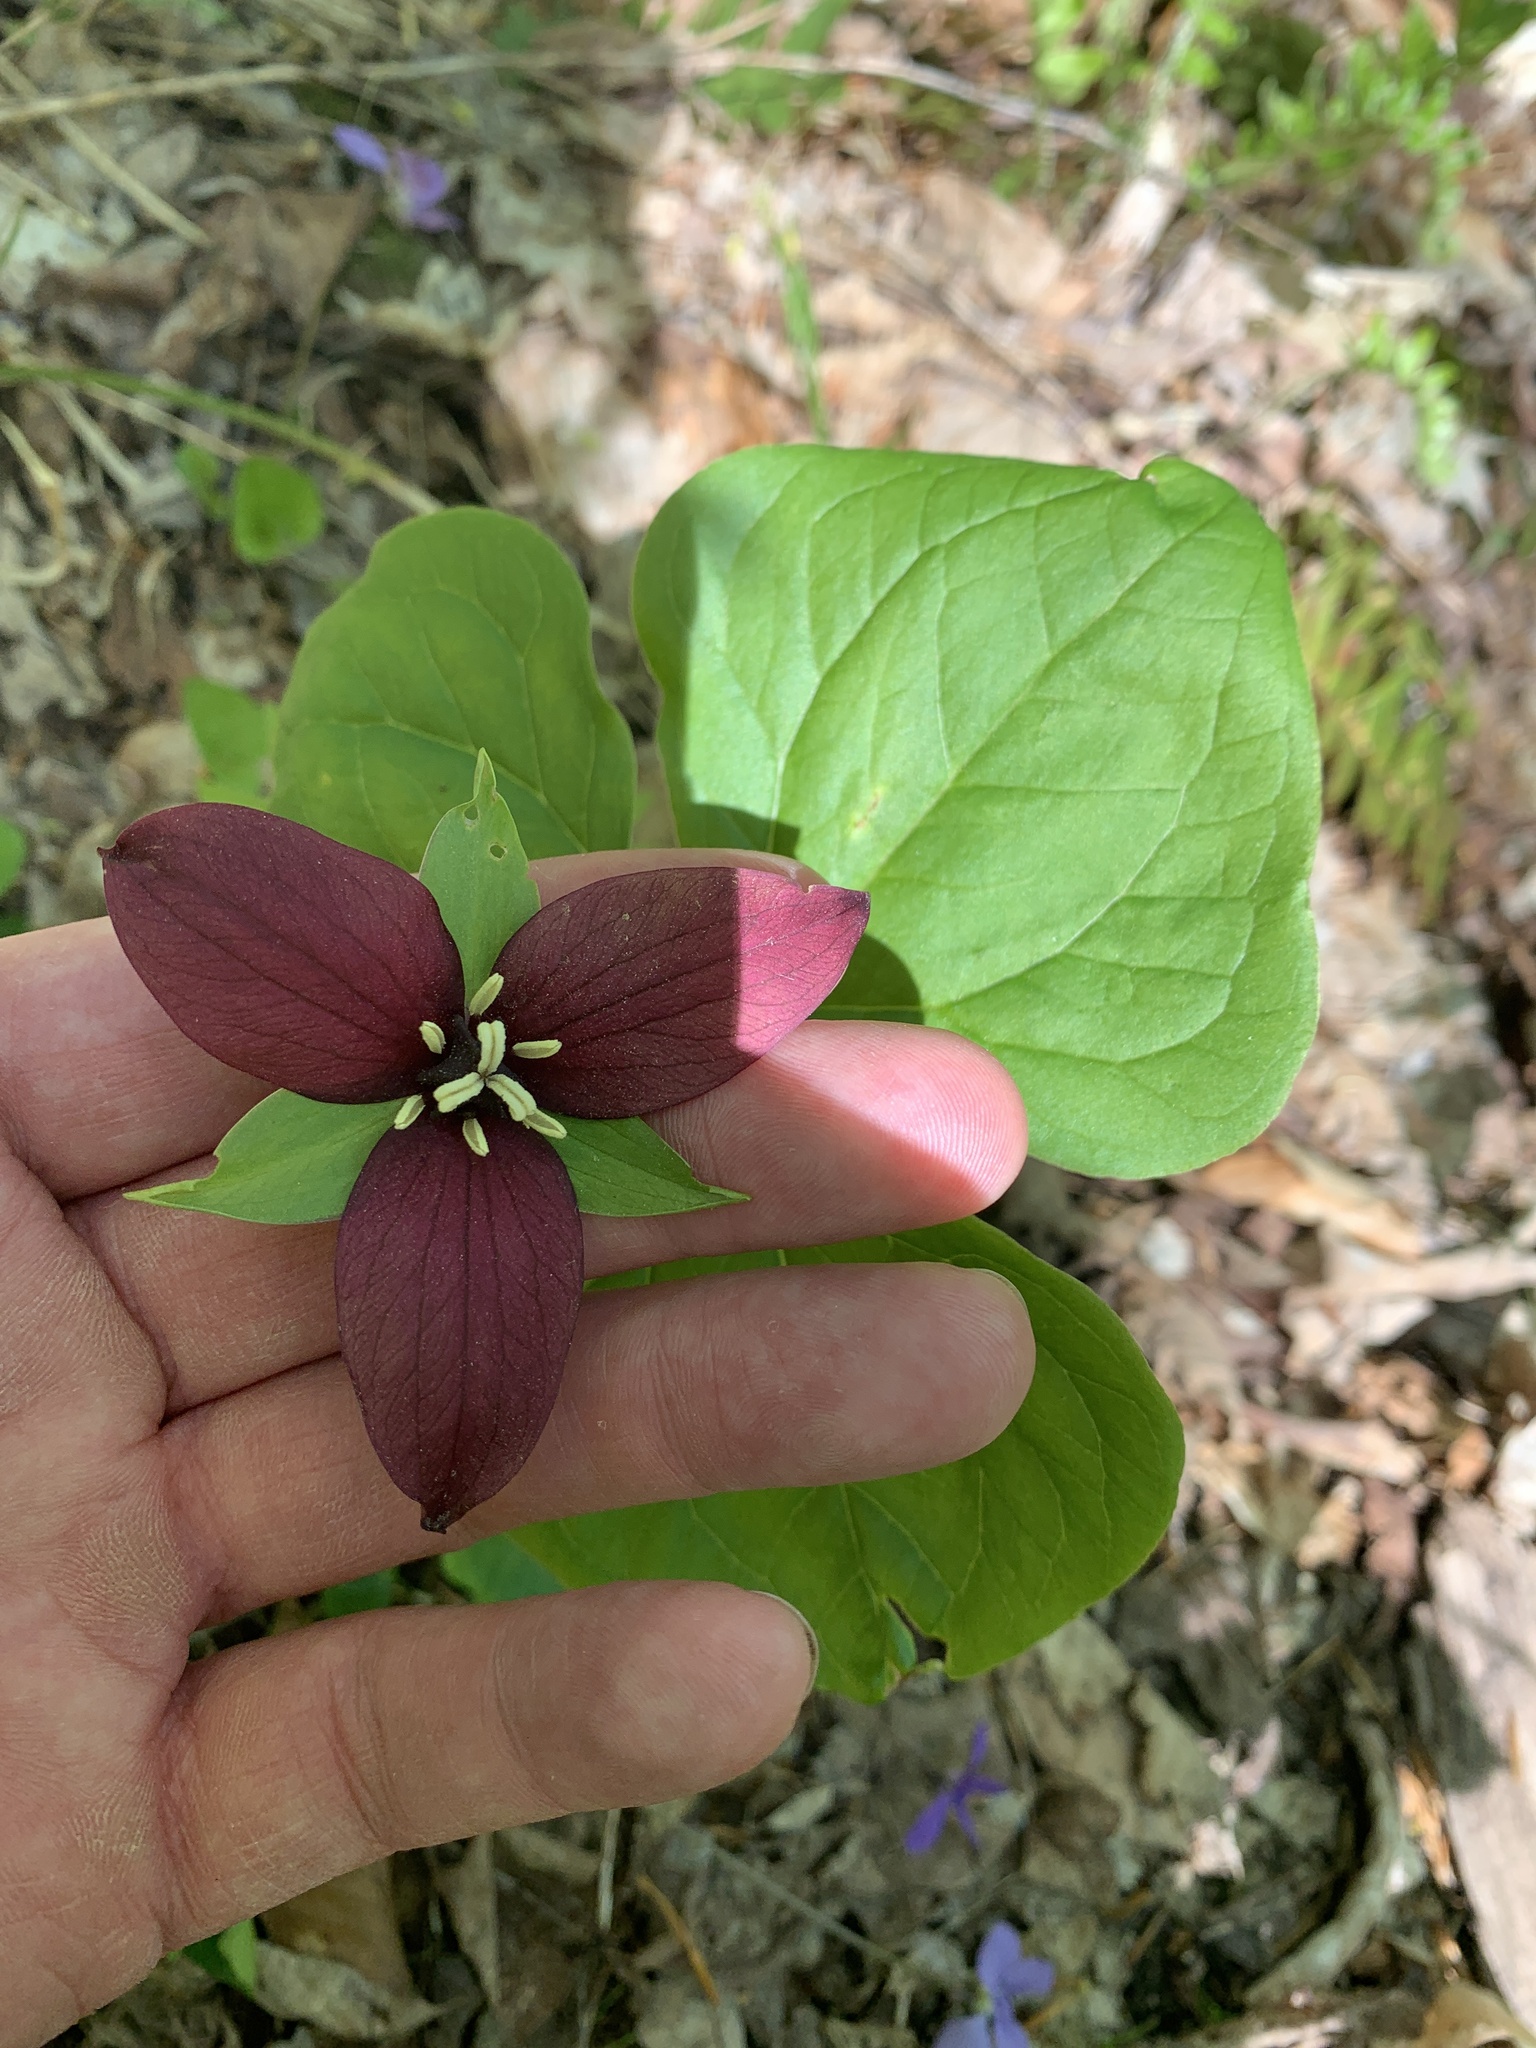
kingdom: Plantae
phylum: Tracheophyta
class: Liliopsida
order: Liliales
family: Melanthiaceae
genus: Trillium
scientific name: Trillium erectum
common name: Purple trillium
